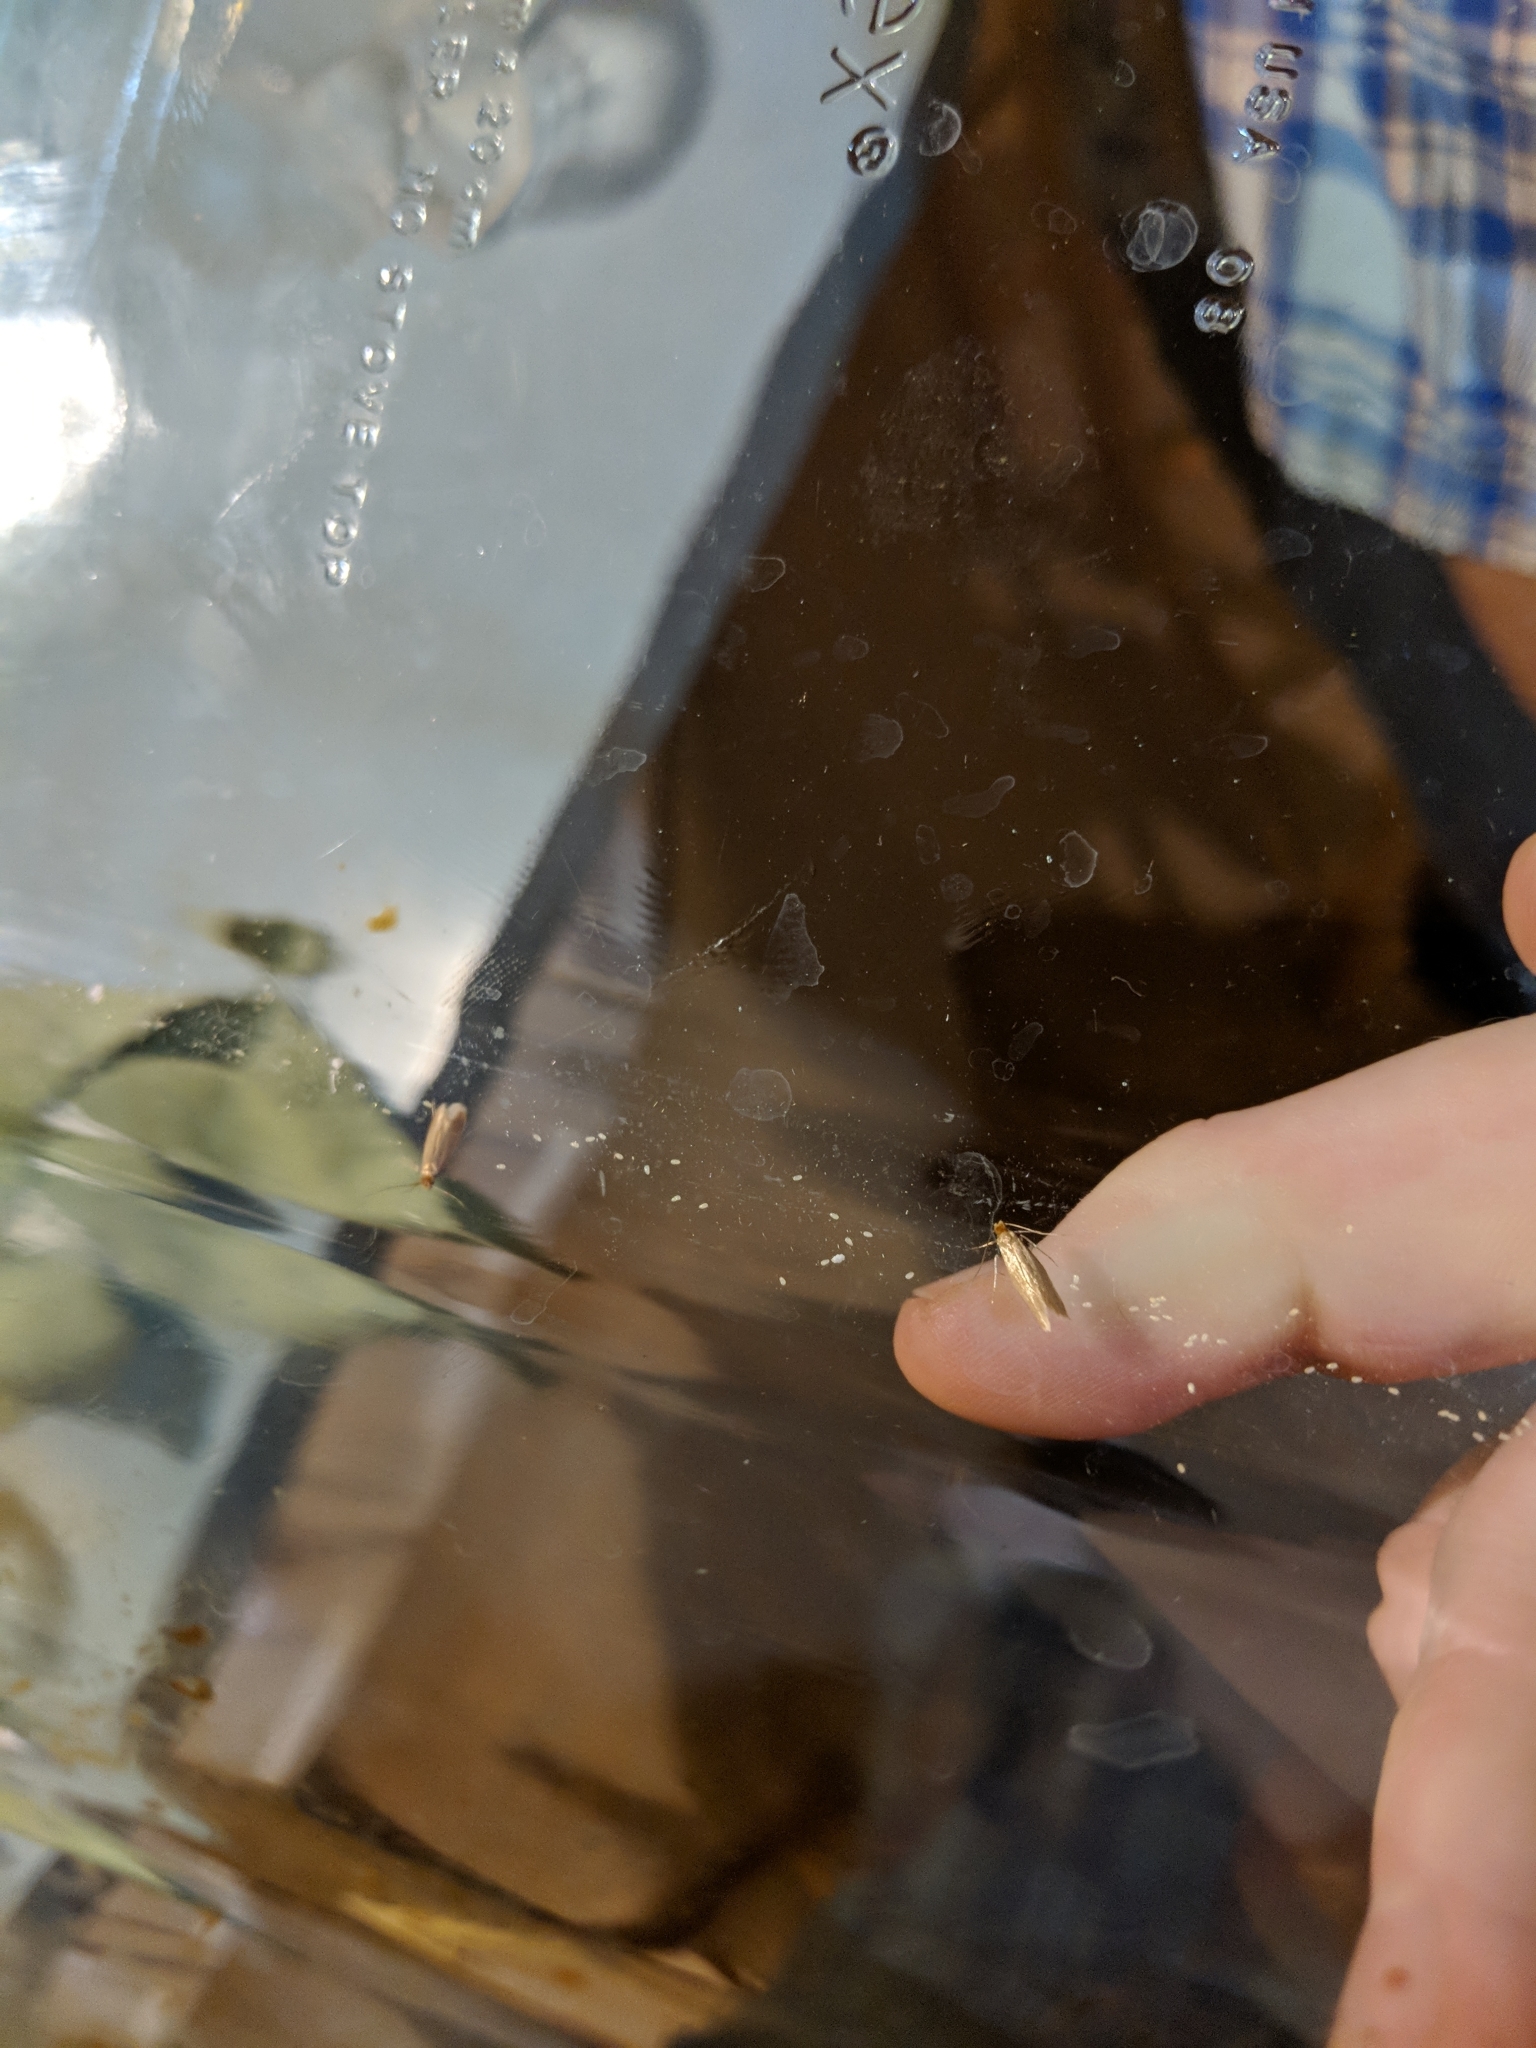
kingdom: Animalia
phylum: Arthropoda
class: Insecta
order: Lepidoptera
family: Tineidae
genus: Tineola
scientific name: Tineola bisselliella
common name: Webbing clothes moth
